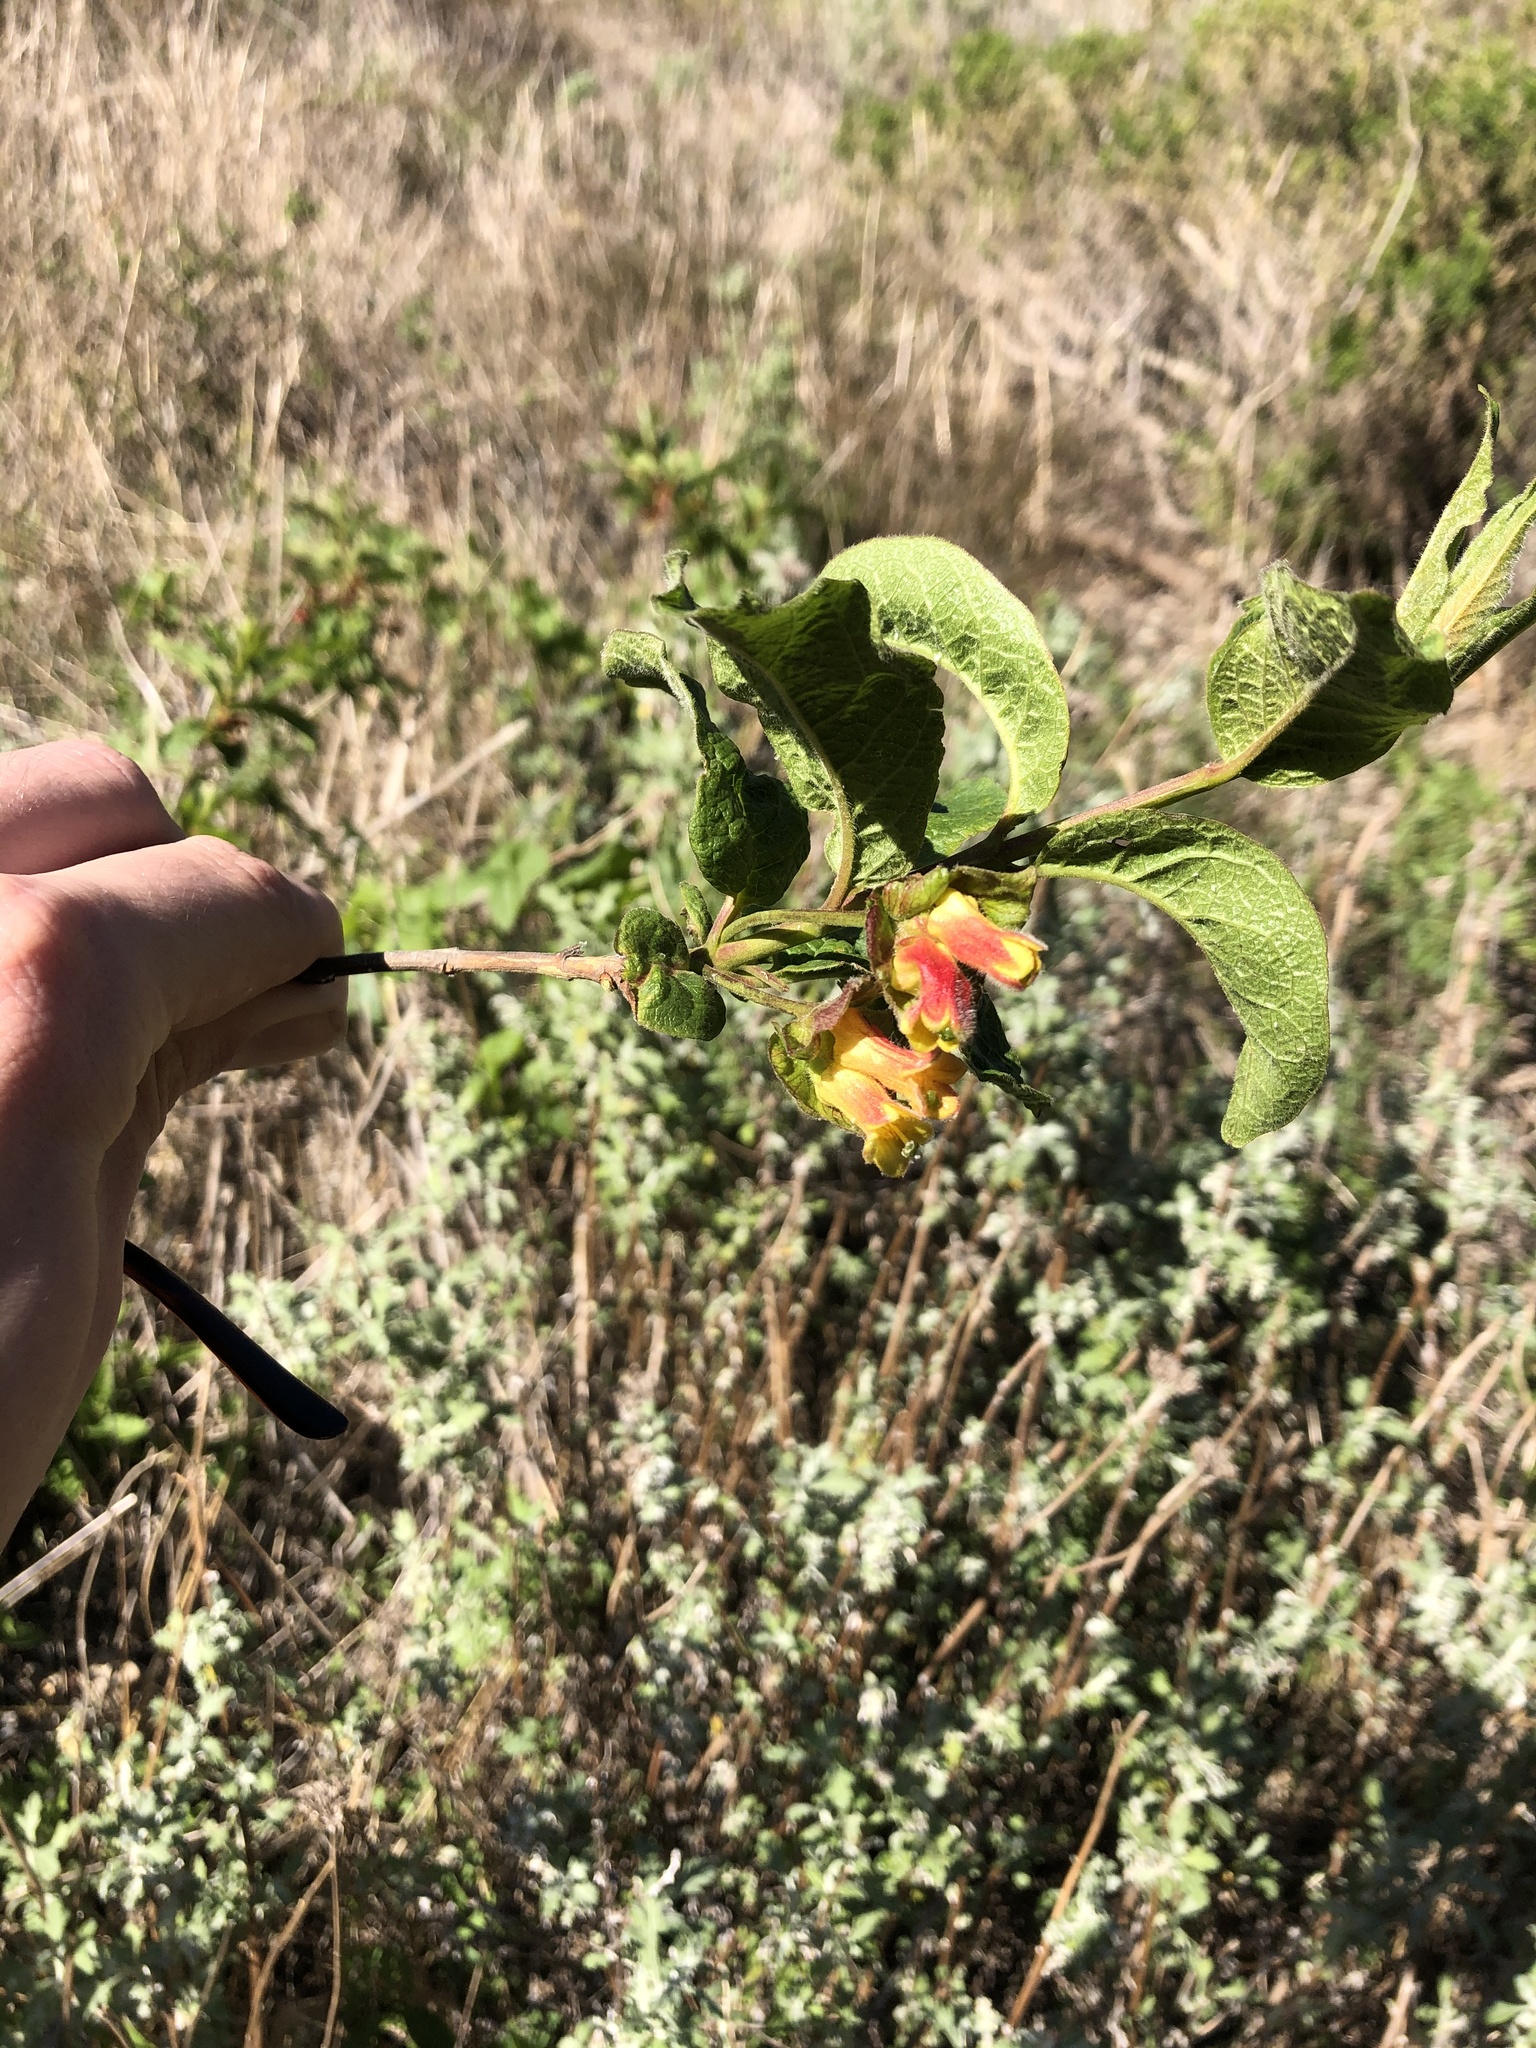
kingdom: Plantae
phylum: Tracheophyta
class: Magnoliopsida
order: Dipsacales
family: Caprifoliaceae
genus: Lonicera
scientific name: Lonicera involucrata
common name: Californian honeysuckle
